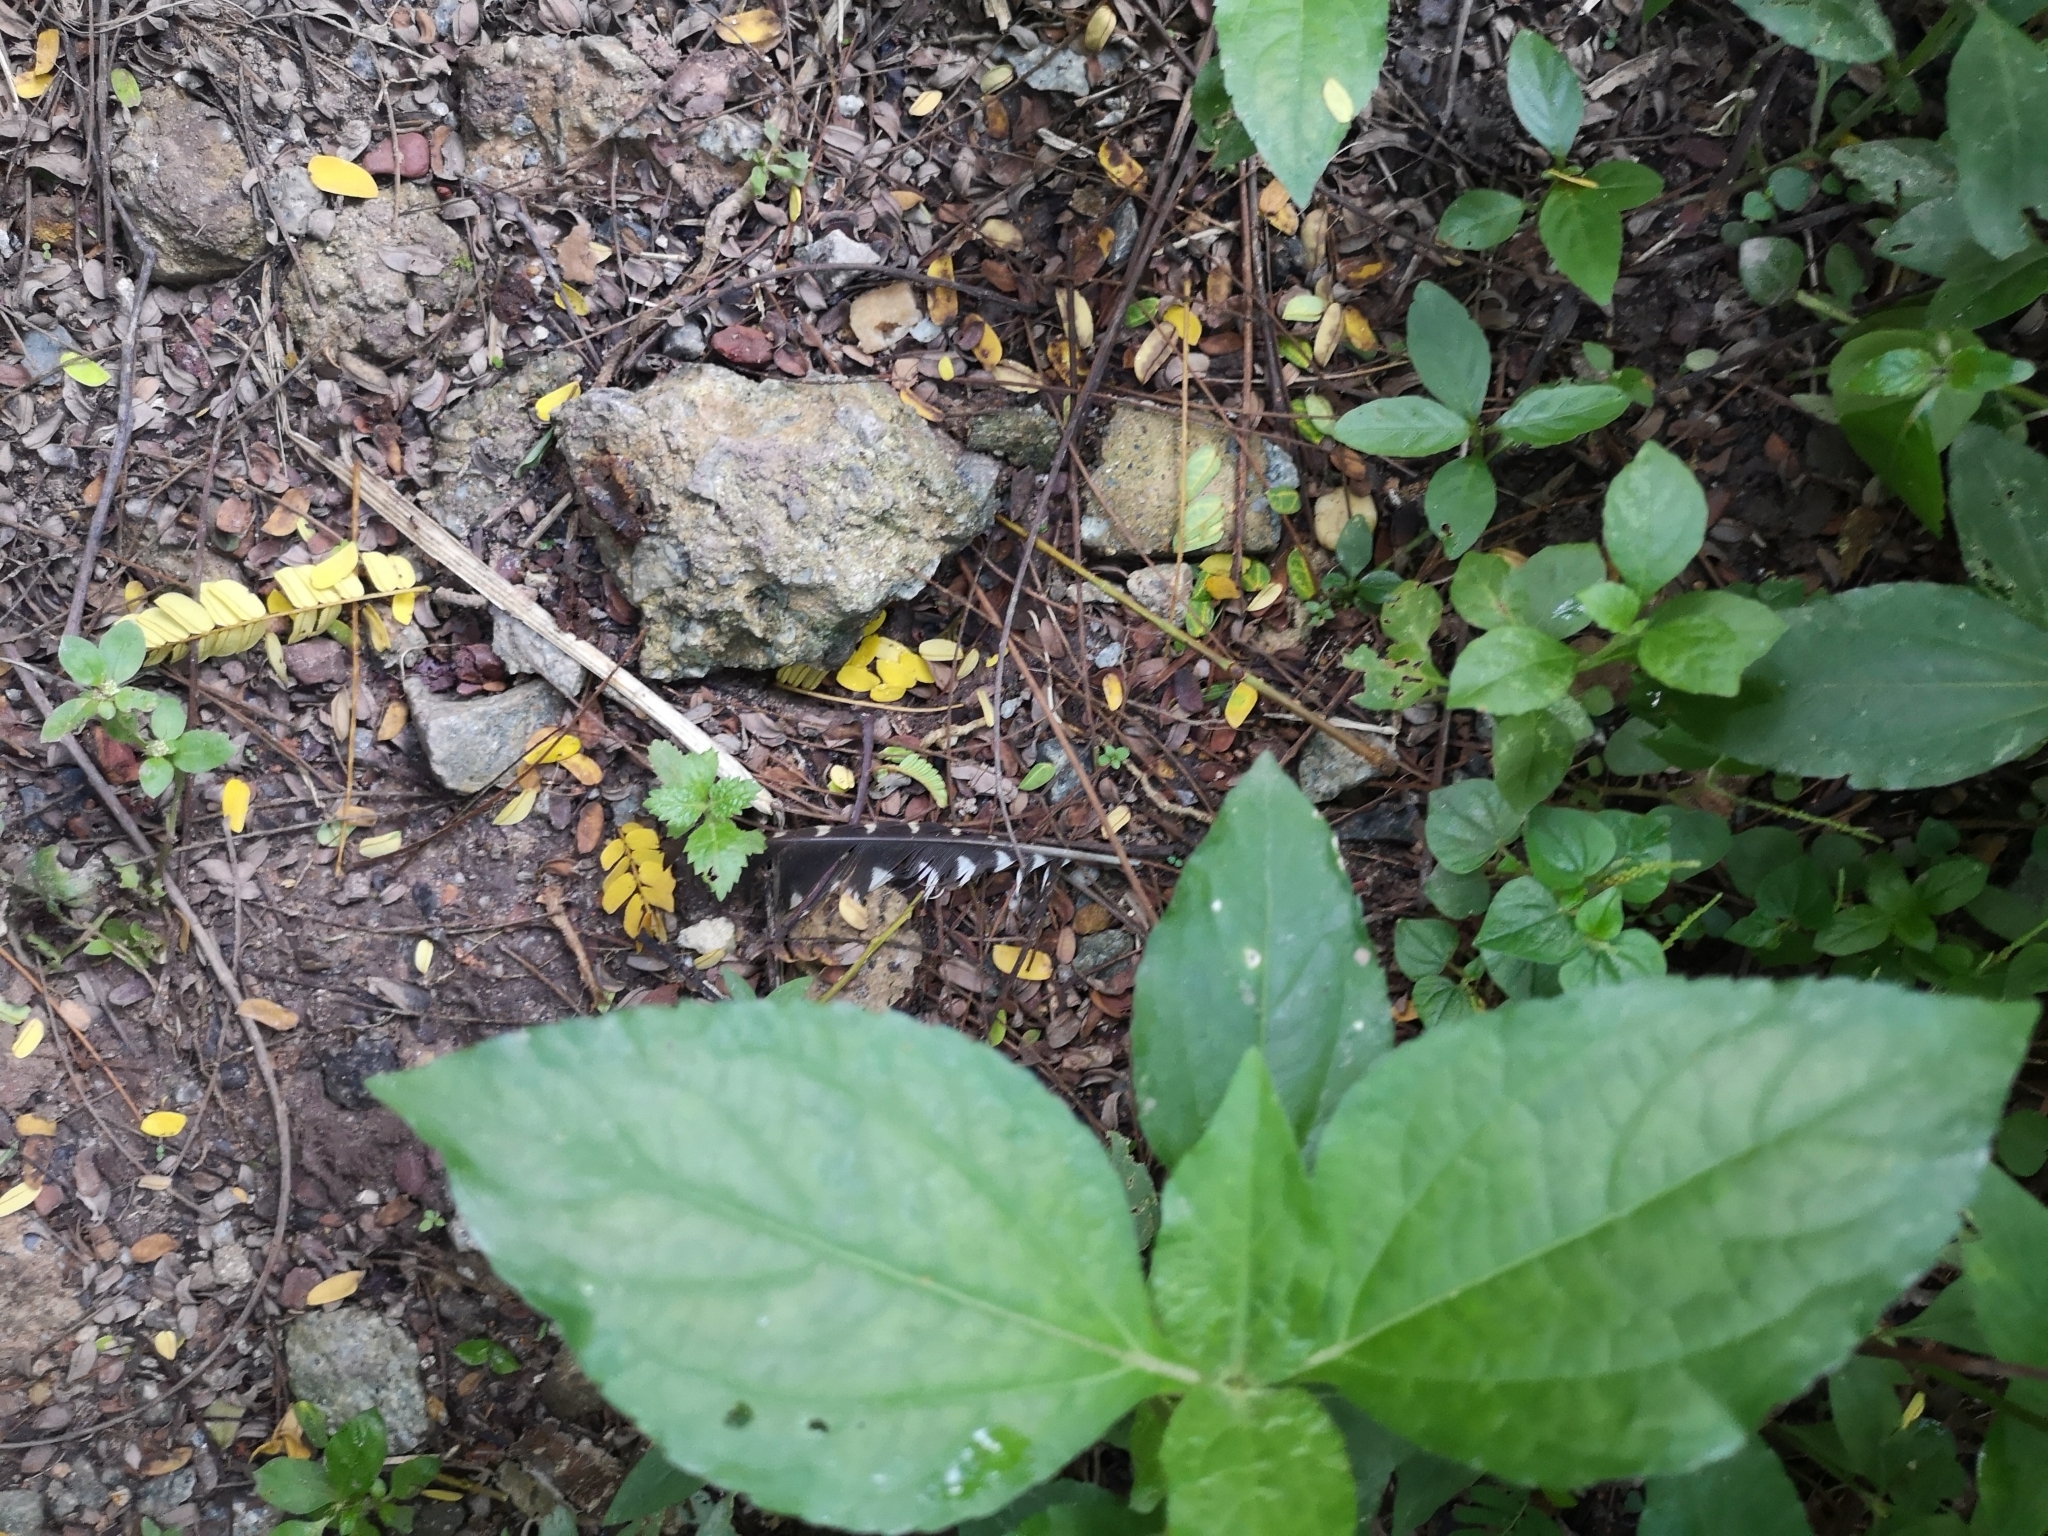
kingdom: Animalia
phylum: Chordata
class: Aves
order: Piciformes
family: Picidae
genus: Picus
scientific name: Picus vittatus
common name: Laced woodpecker
